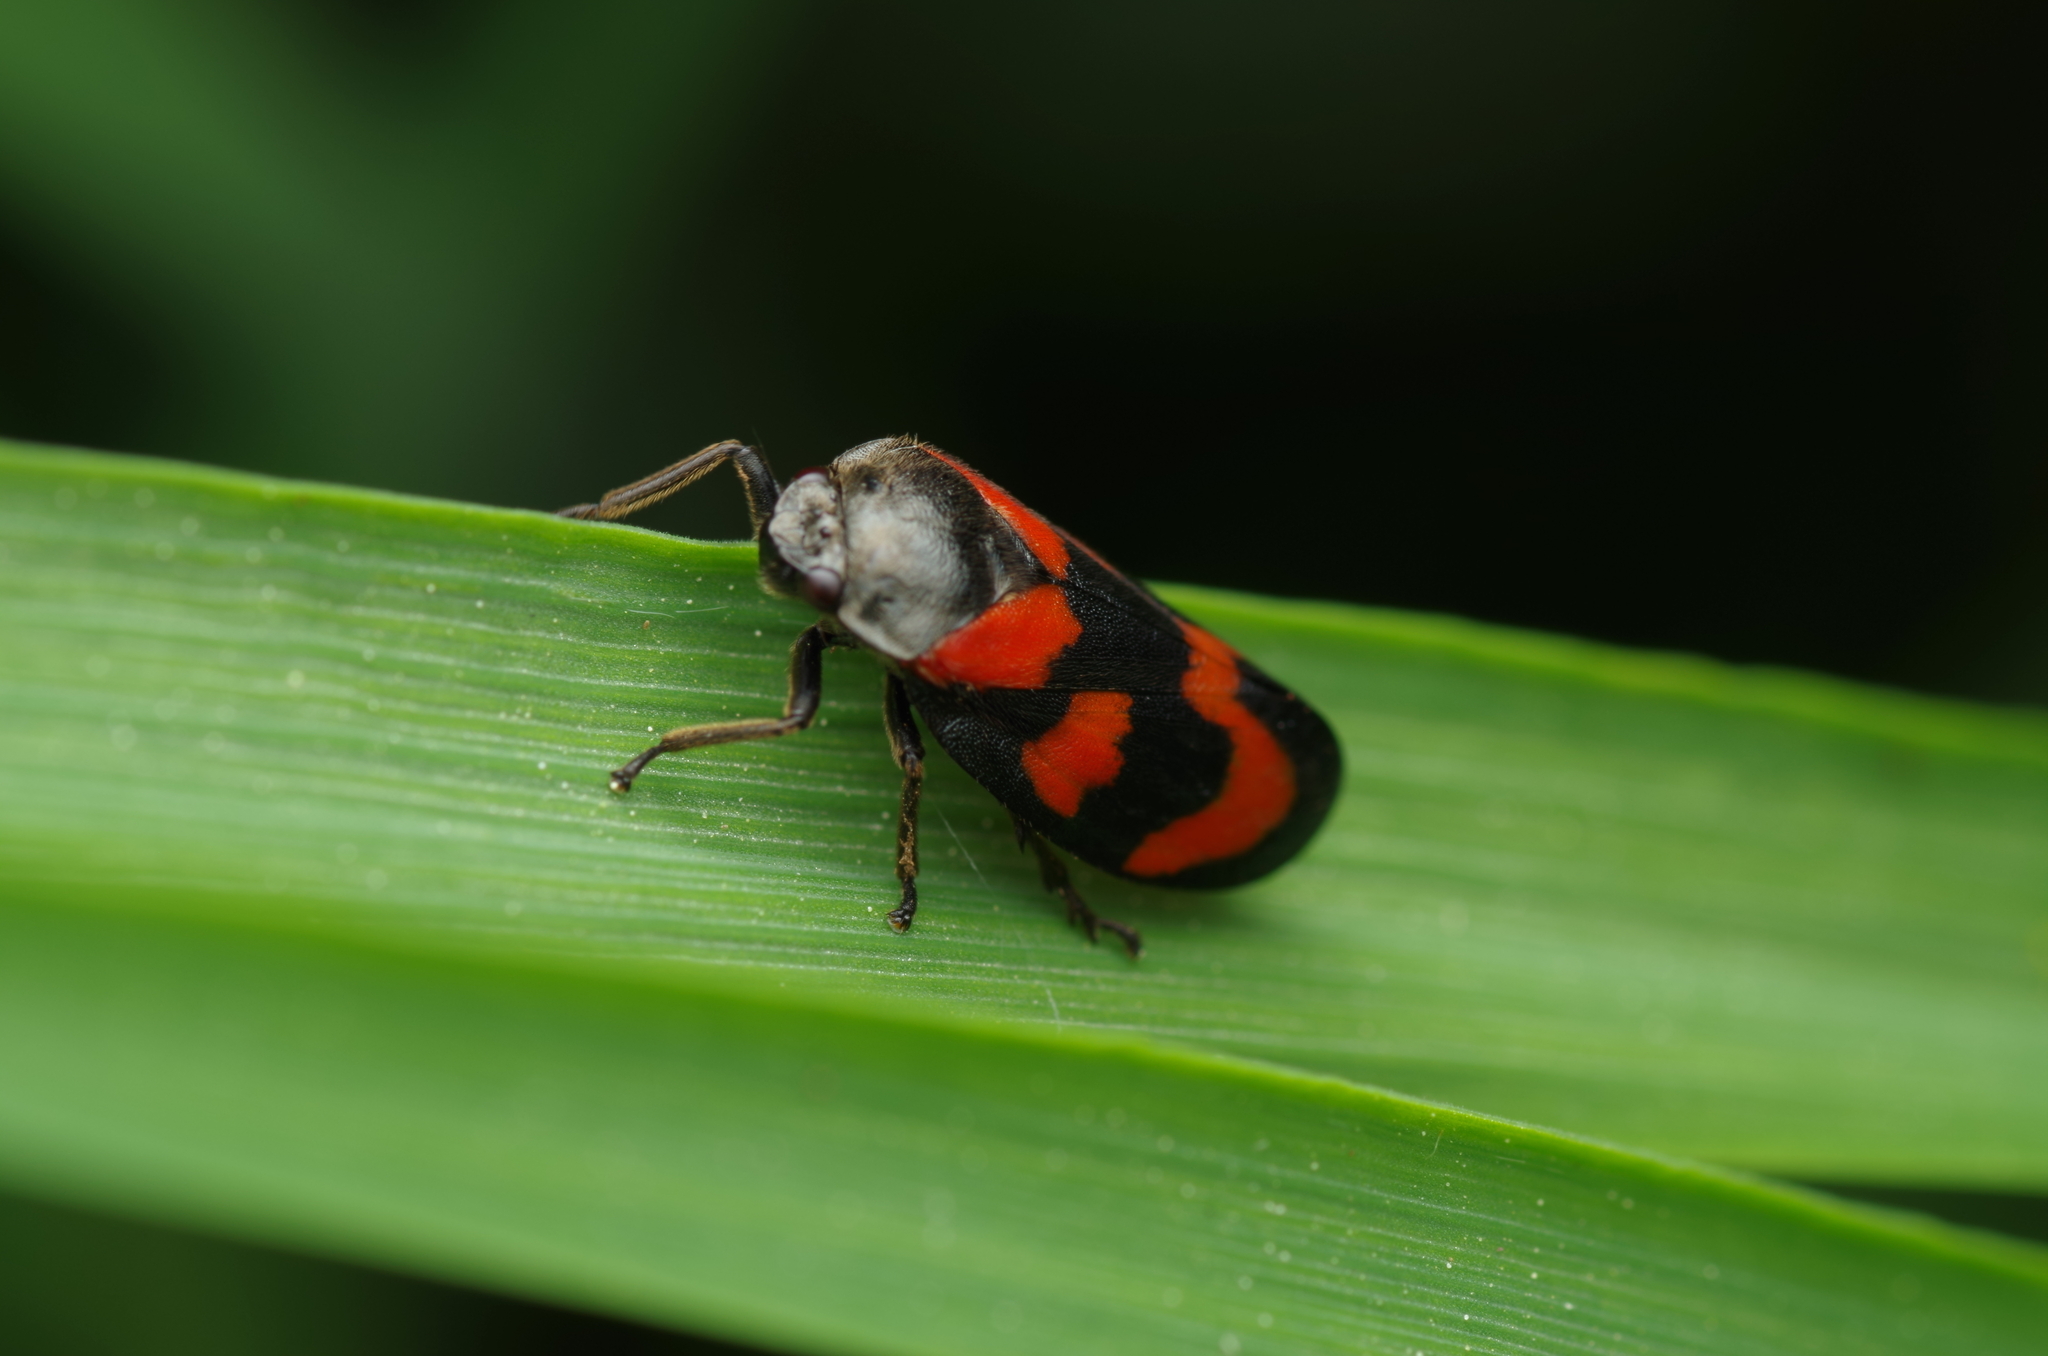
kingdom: Animalia
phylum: Arthropoda
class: Insecta
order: Hemiptera
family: Cercopidae
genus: Cercopis
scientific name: Cercopis vulnerata
